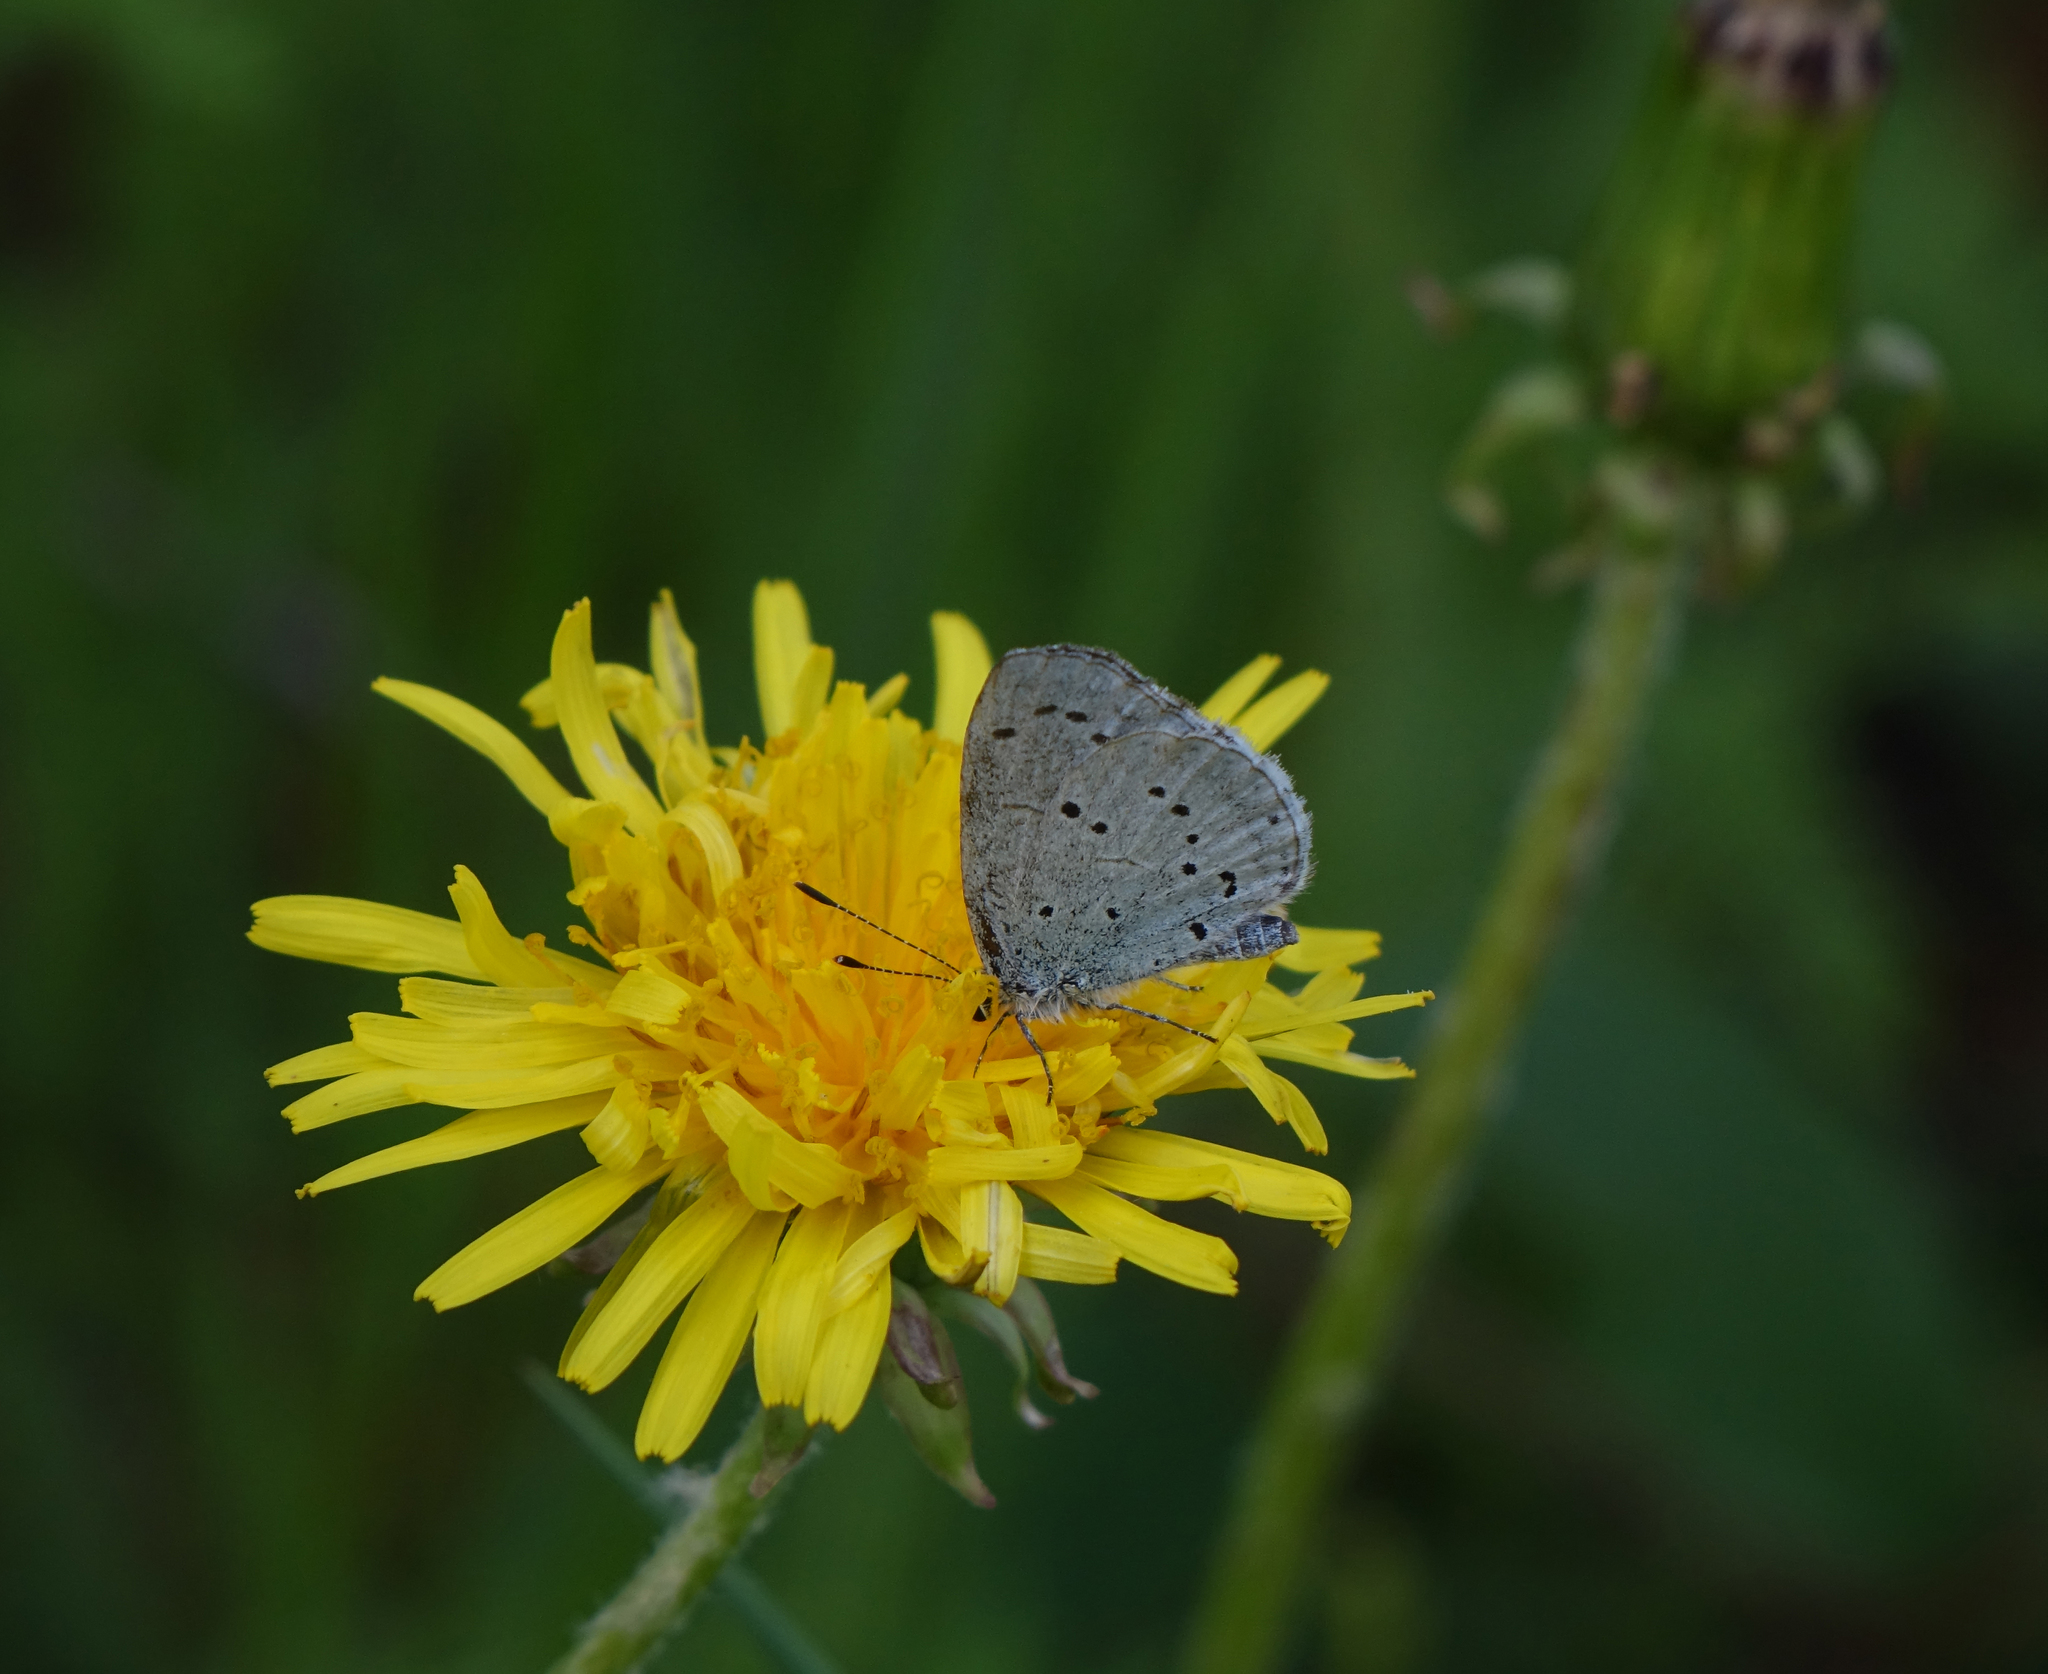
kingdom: Animalia
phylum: Arthropoda
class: Insecta
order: Lepidoptera
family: Lycaenidae
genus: Celastrina
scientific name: Celastrina argiolus
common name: Holly blue
